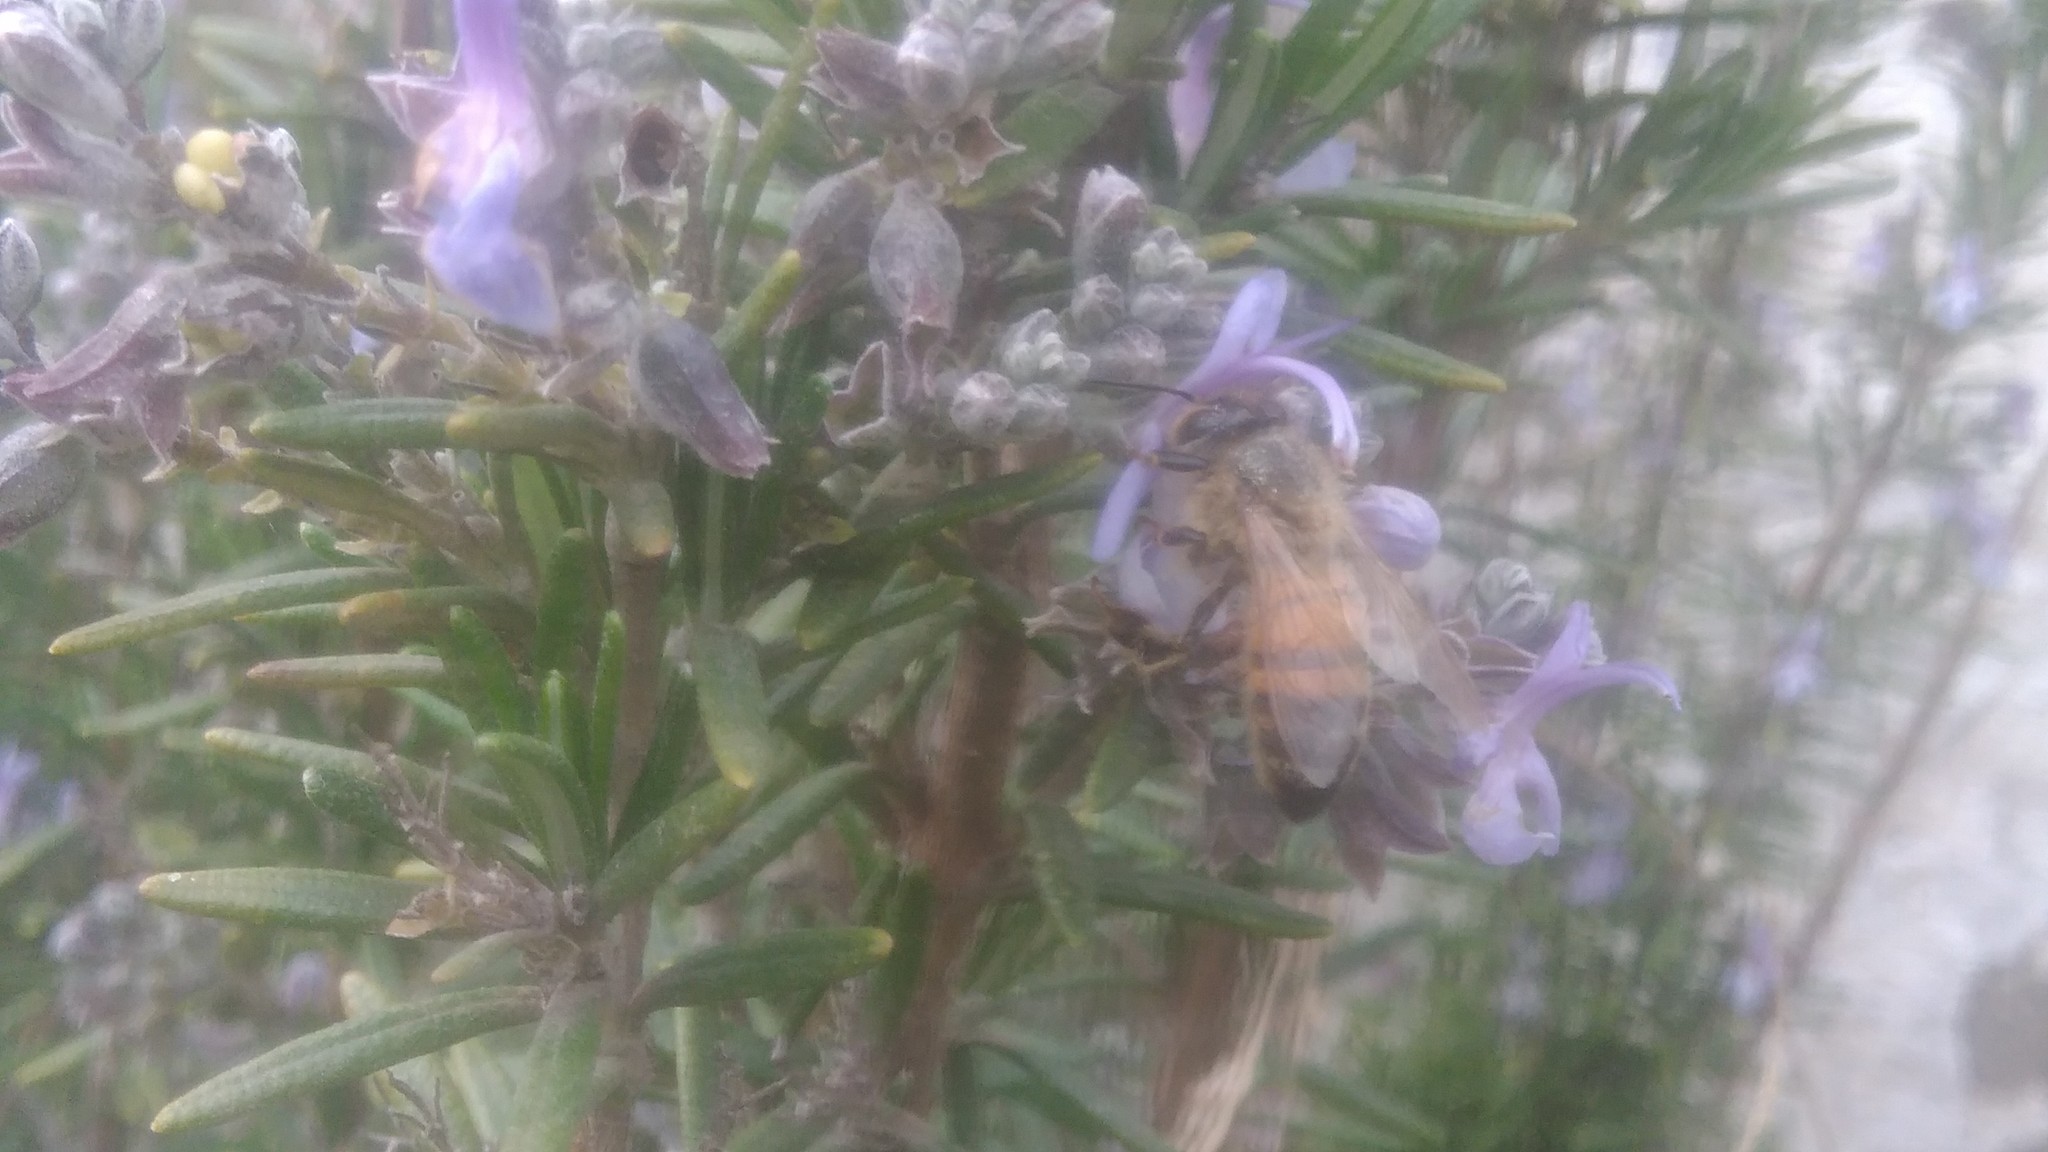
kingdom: Animalia
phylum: Arthropoda
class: Insecta
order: Hymenoptera
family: Apidae
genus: Apis
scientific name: Apis mellifera
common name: Honey bee
